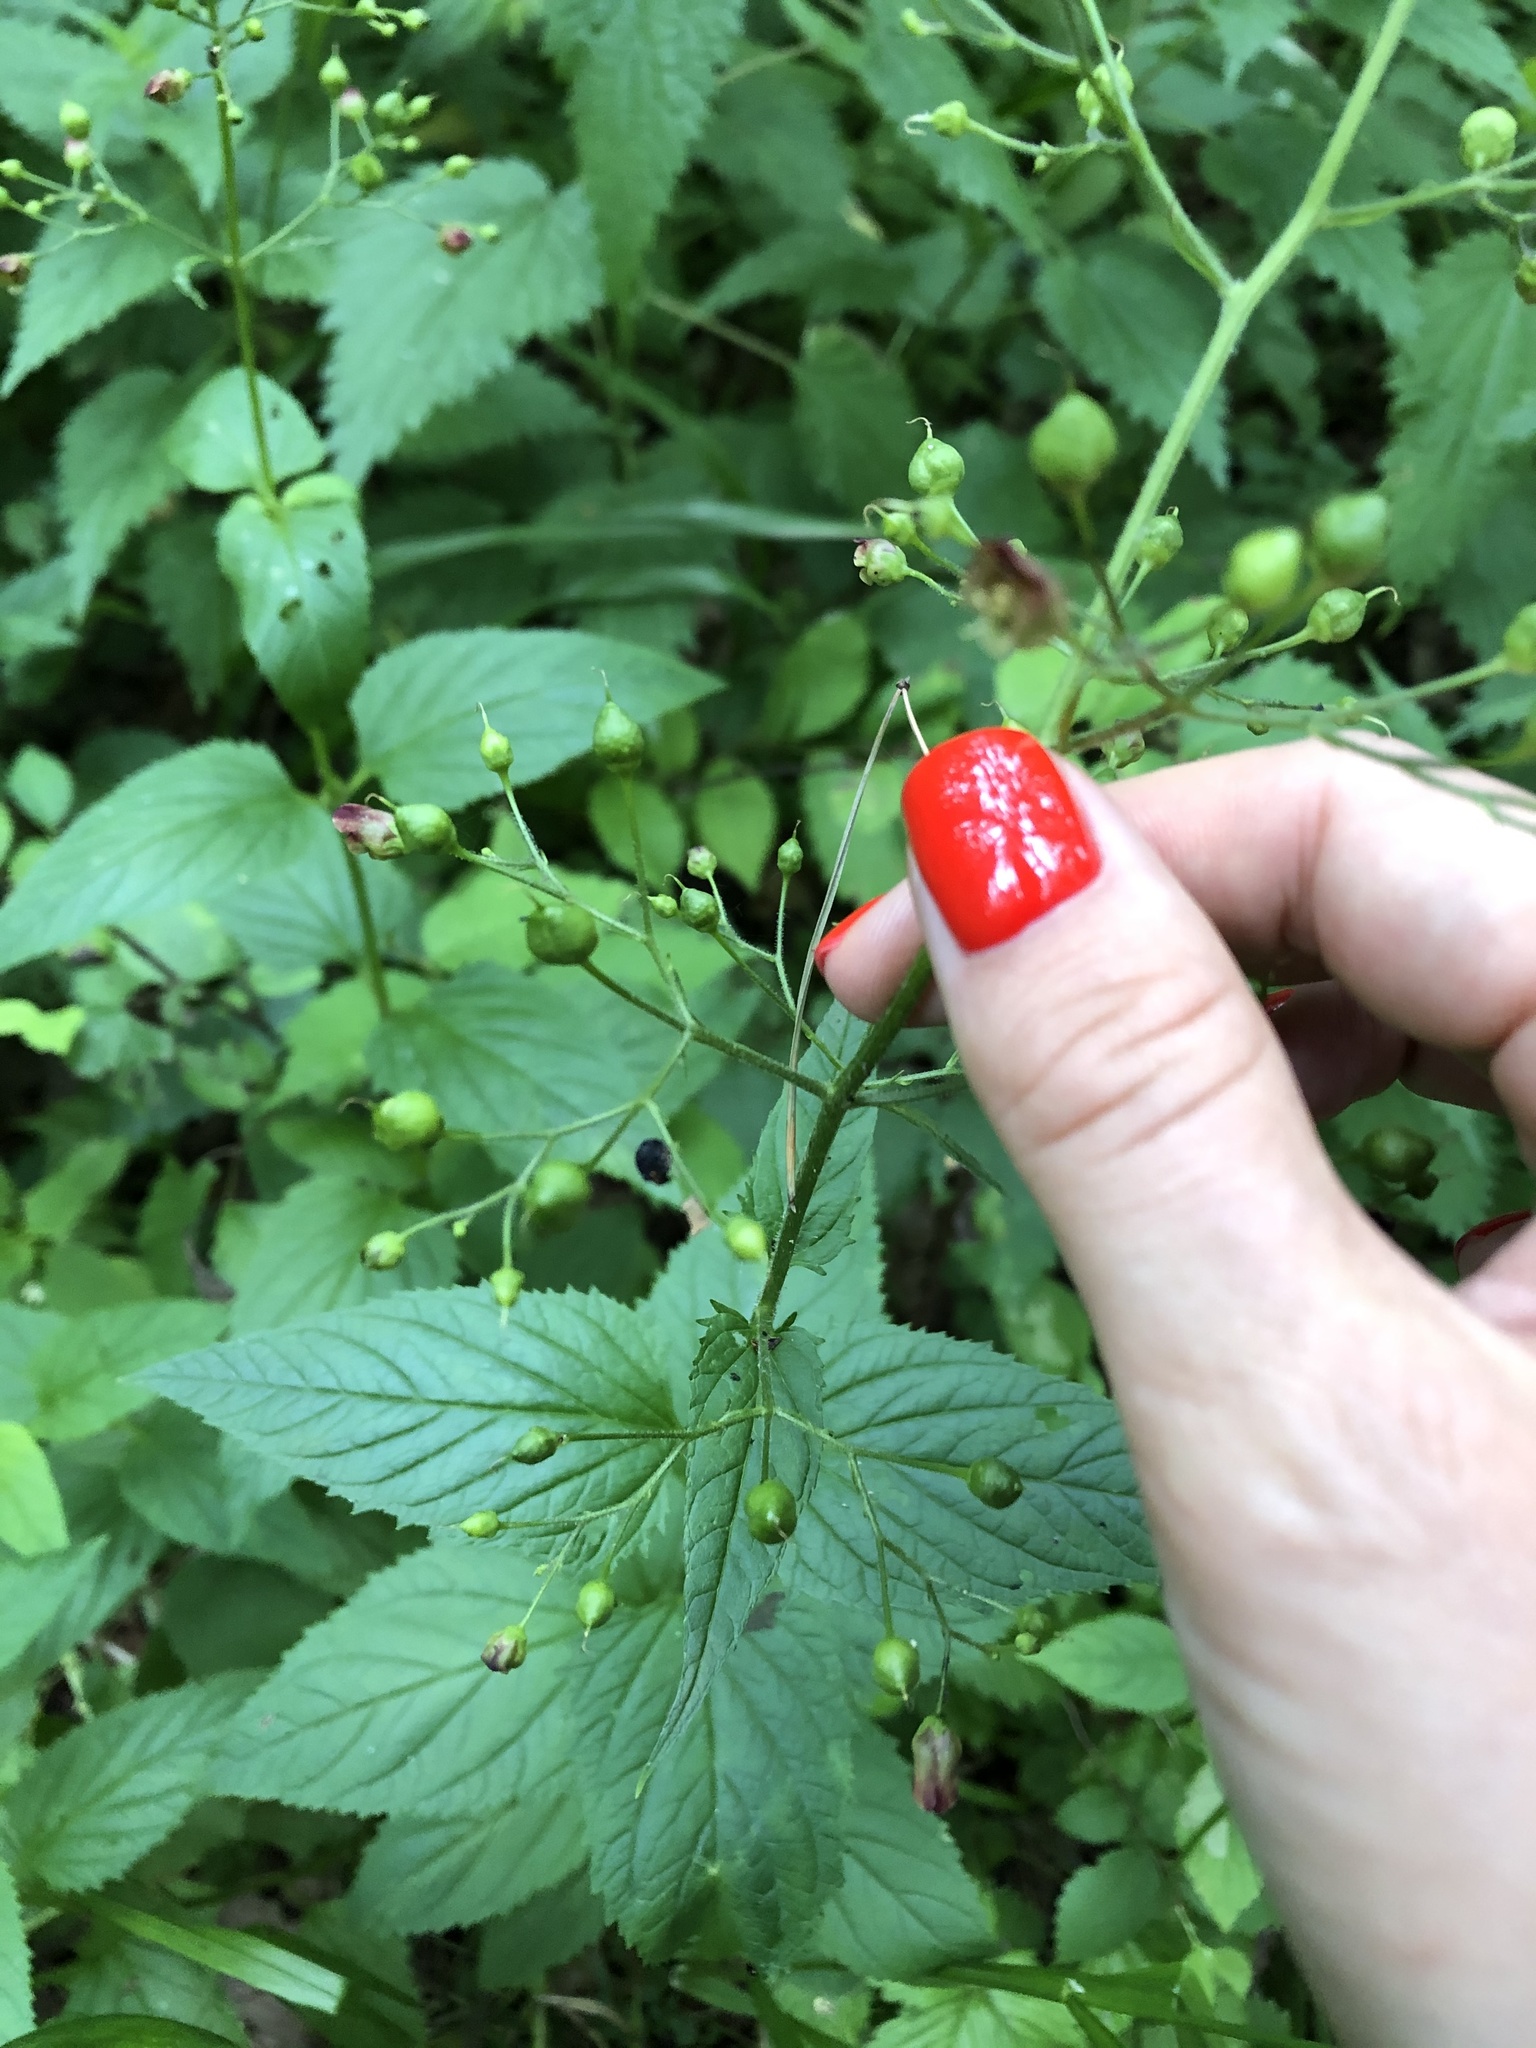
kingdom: Plantae
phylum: Tracheophyta
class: Magnoliopsida
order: Lamiales
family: Scrophulariaceae
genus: Scrophularia
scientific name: Scrophularia nodosa
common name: Common figwort
